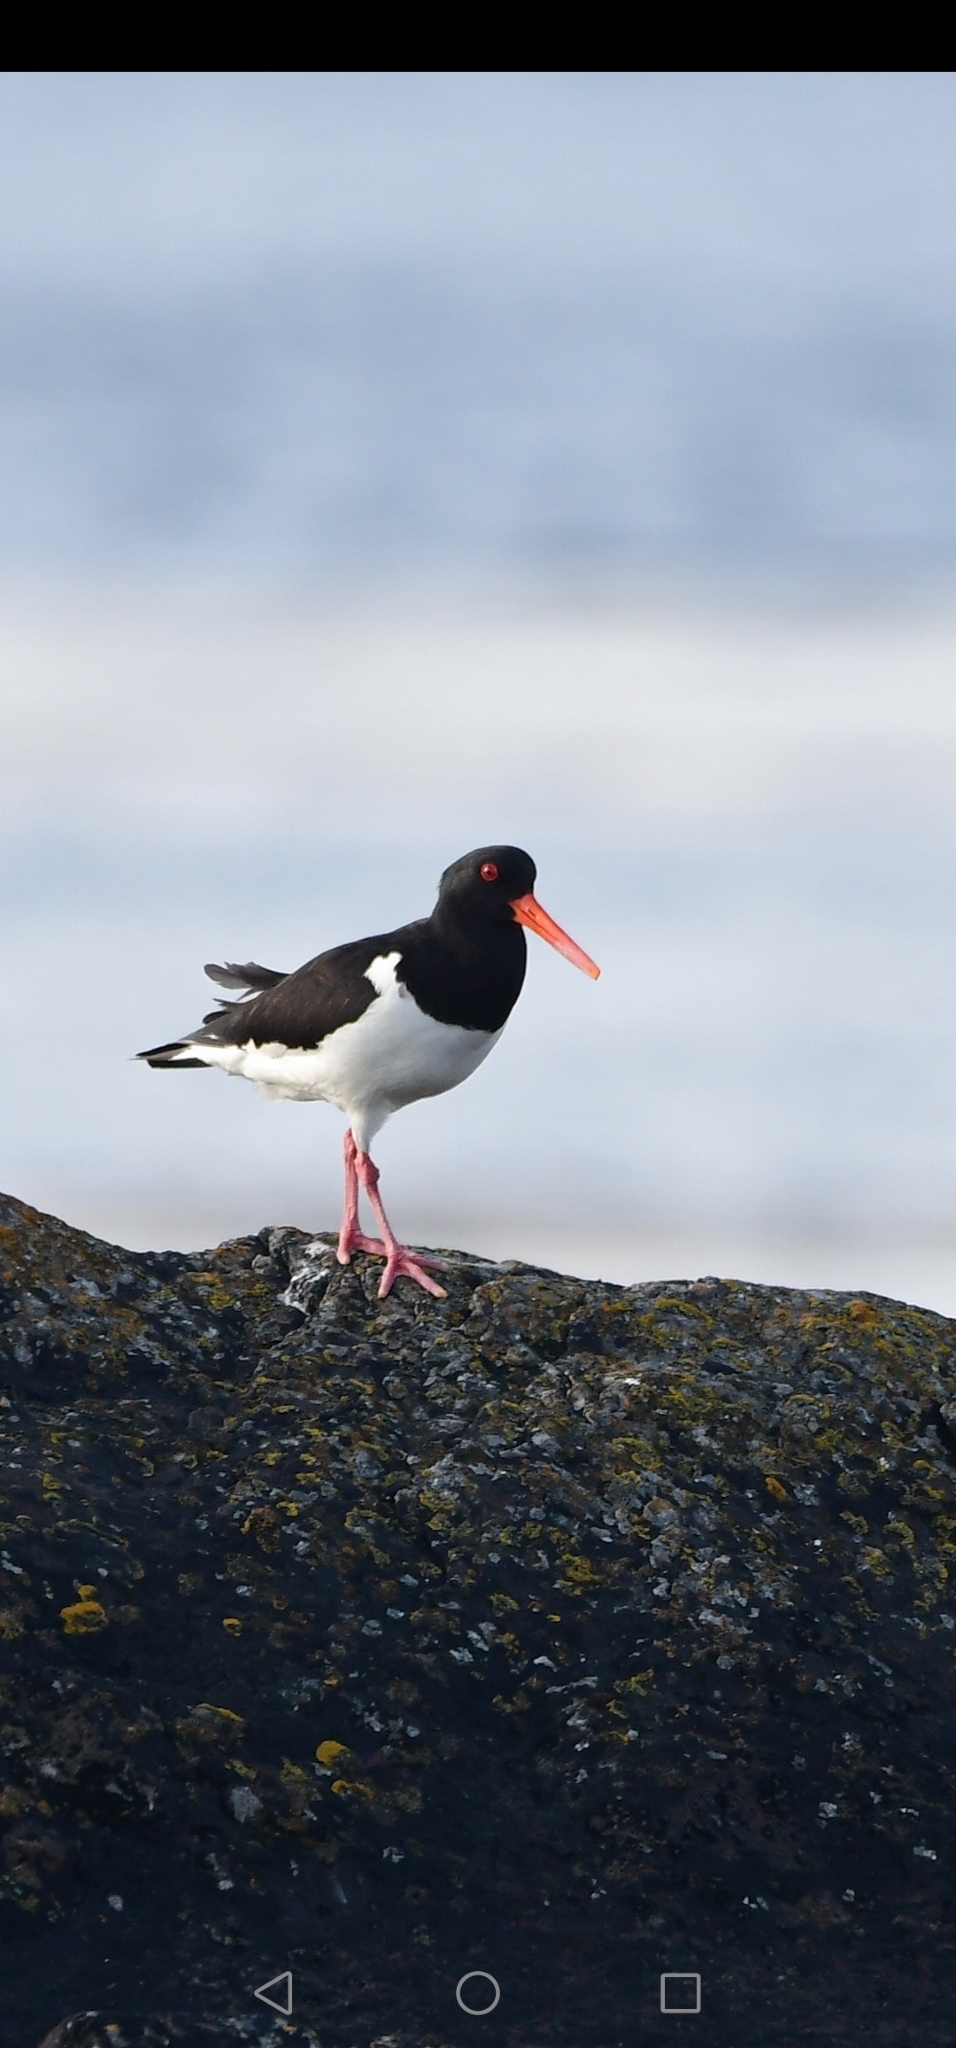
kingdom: Animalia
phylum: Chordata
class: Aves
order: Charadriiformes
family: Haematopodidae
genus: Haematopus
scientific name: Haematopus ostralegus
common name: Eurasian oystercatcher
